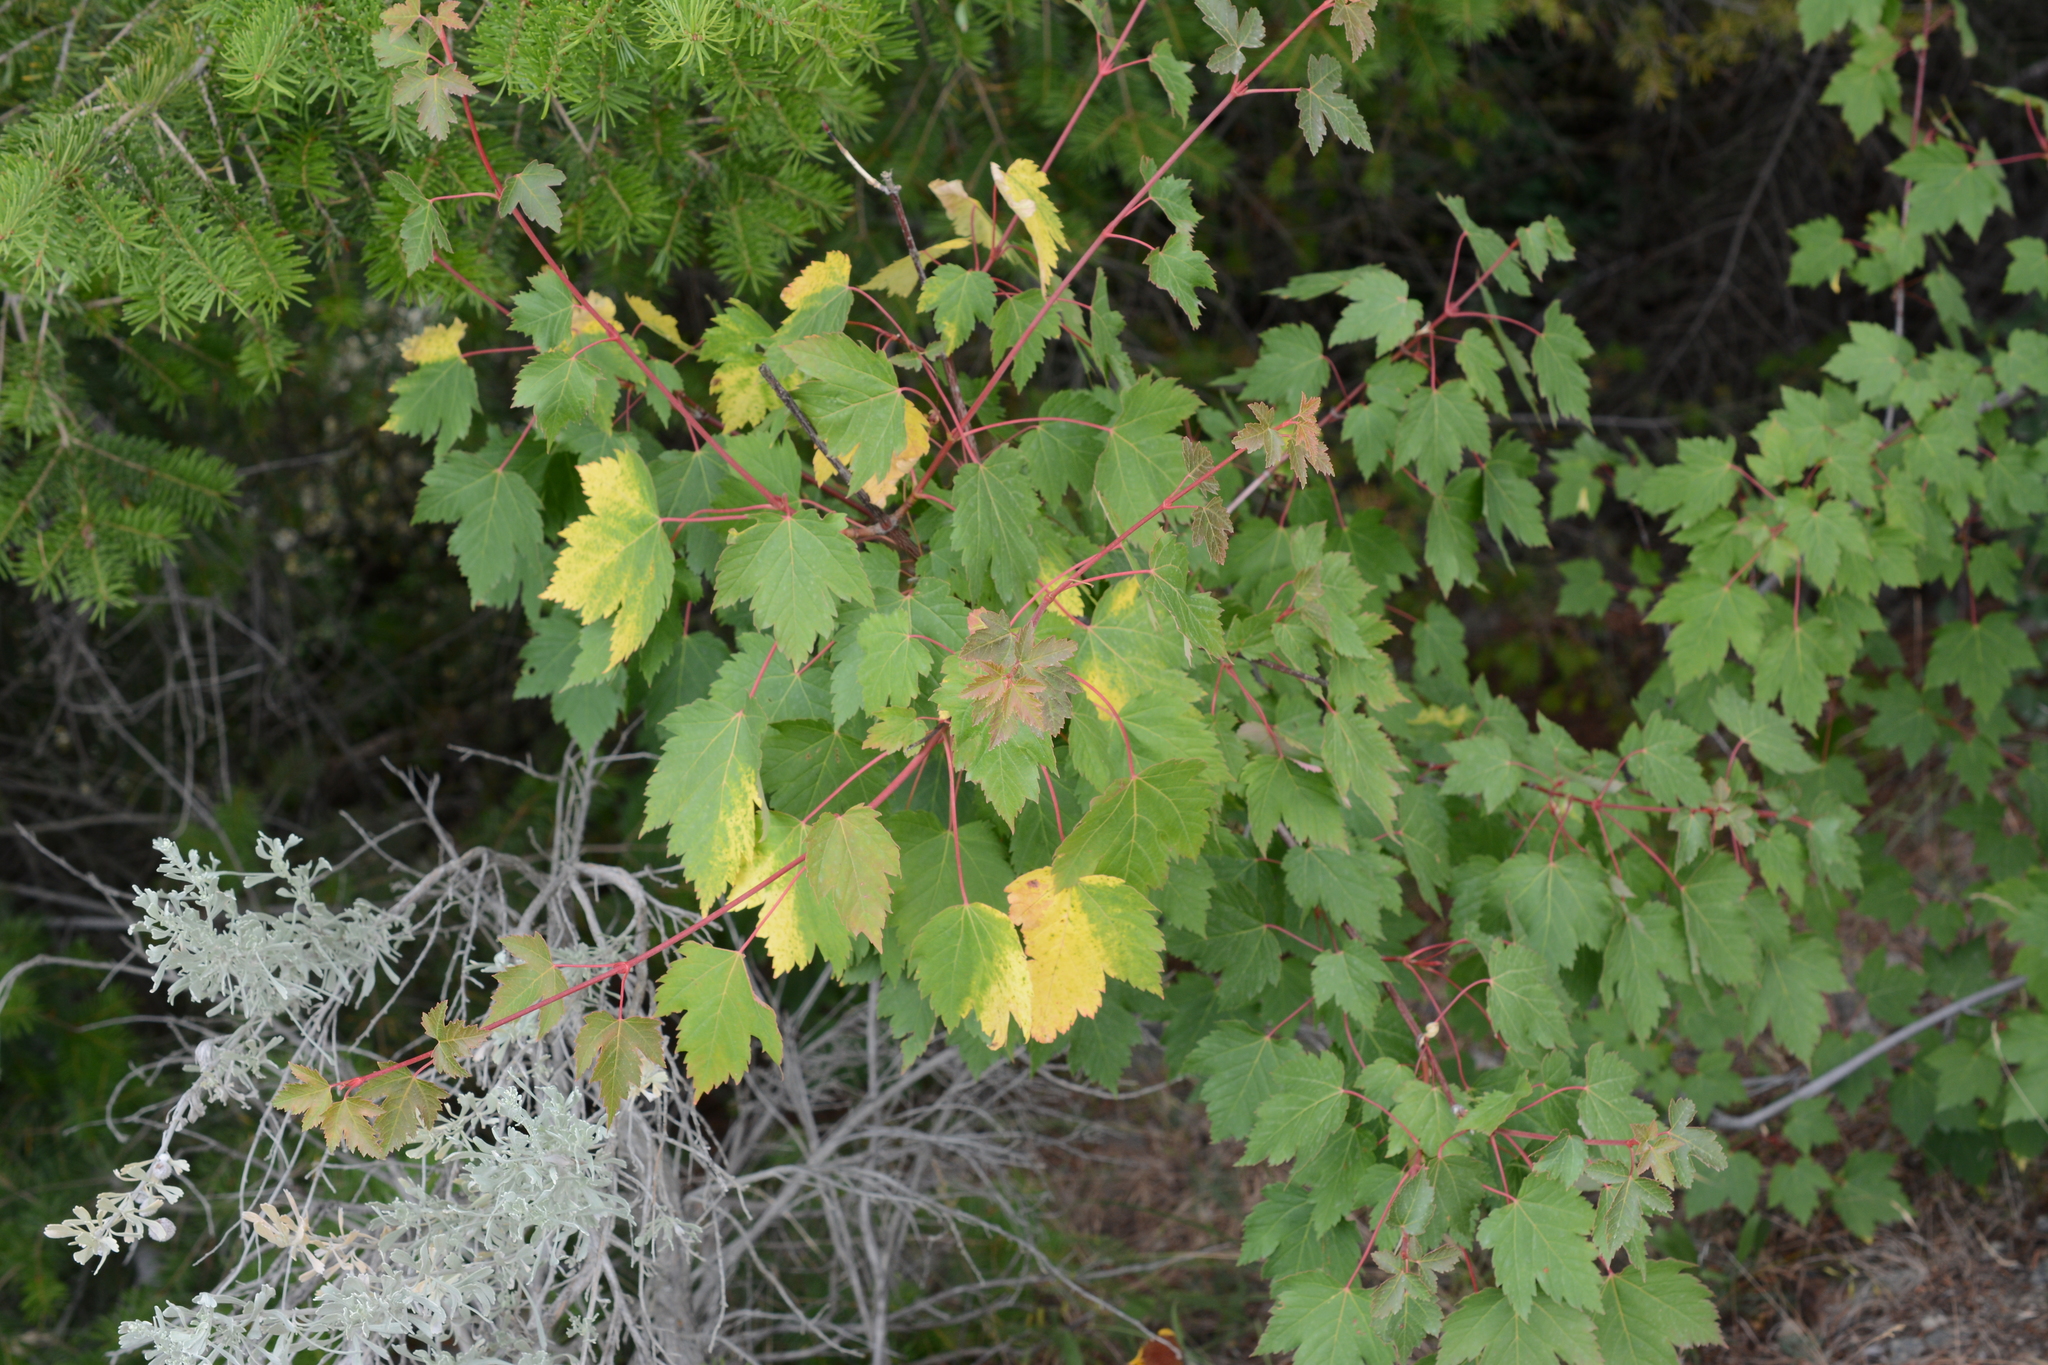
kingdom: Plantae
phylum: Tracheophyta
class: Magnoliopsida
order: Sapindales
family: Sapindaceae
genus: Acer
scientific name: Acer glabrum
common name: Rocky mountain maple
